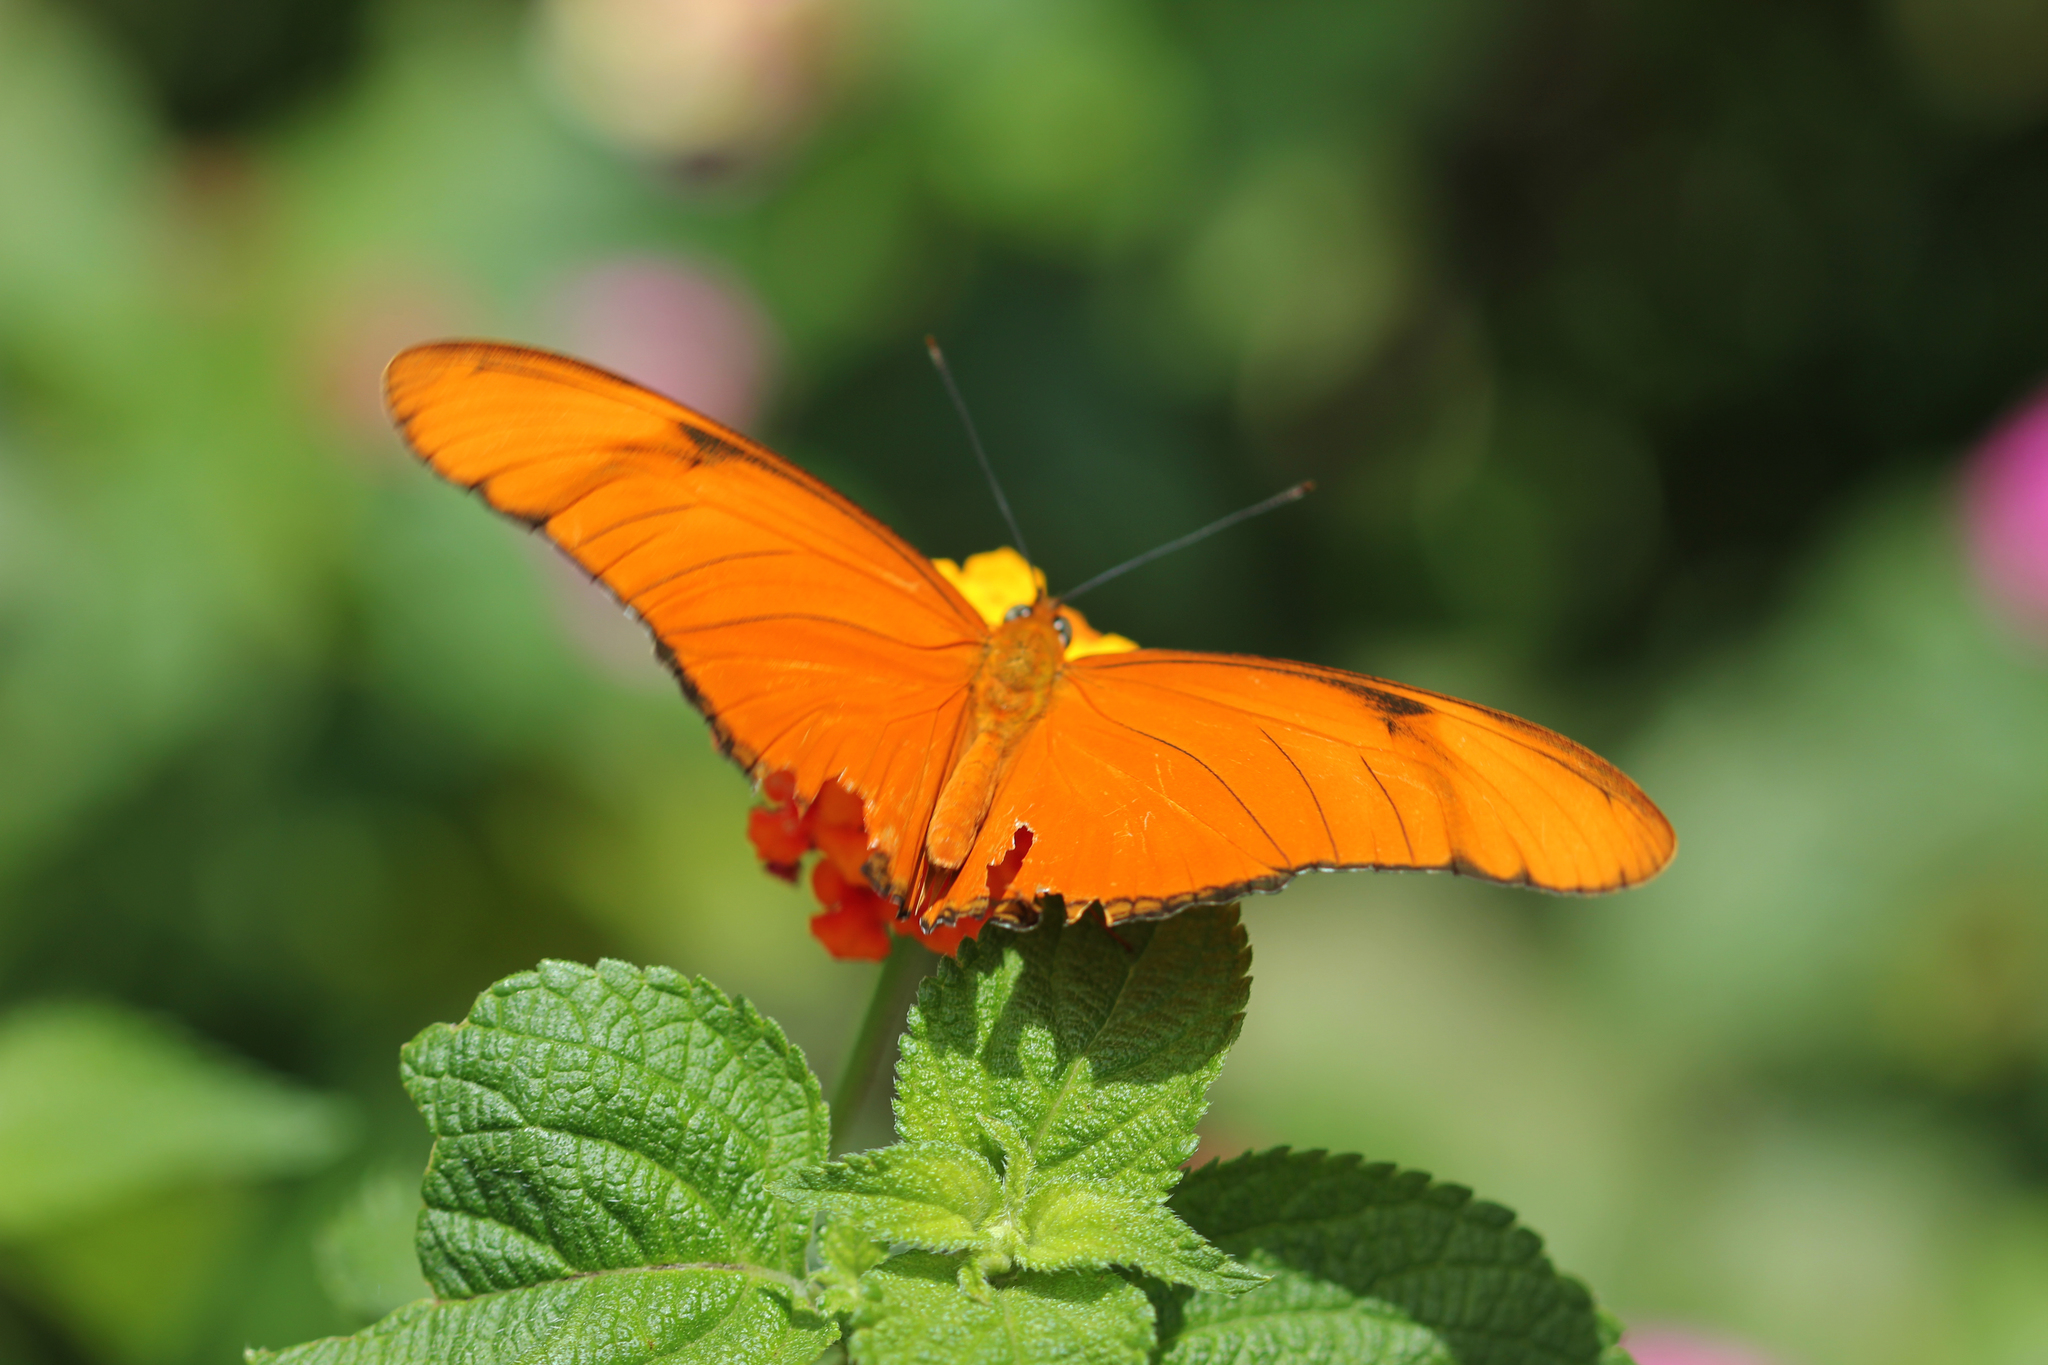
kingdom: Animalia
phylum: Arthropoda
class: Insecta
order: Lepidoptera
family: Nymphalidae
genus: Dryas
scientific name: Dryas iulia
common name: Flambeau
